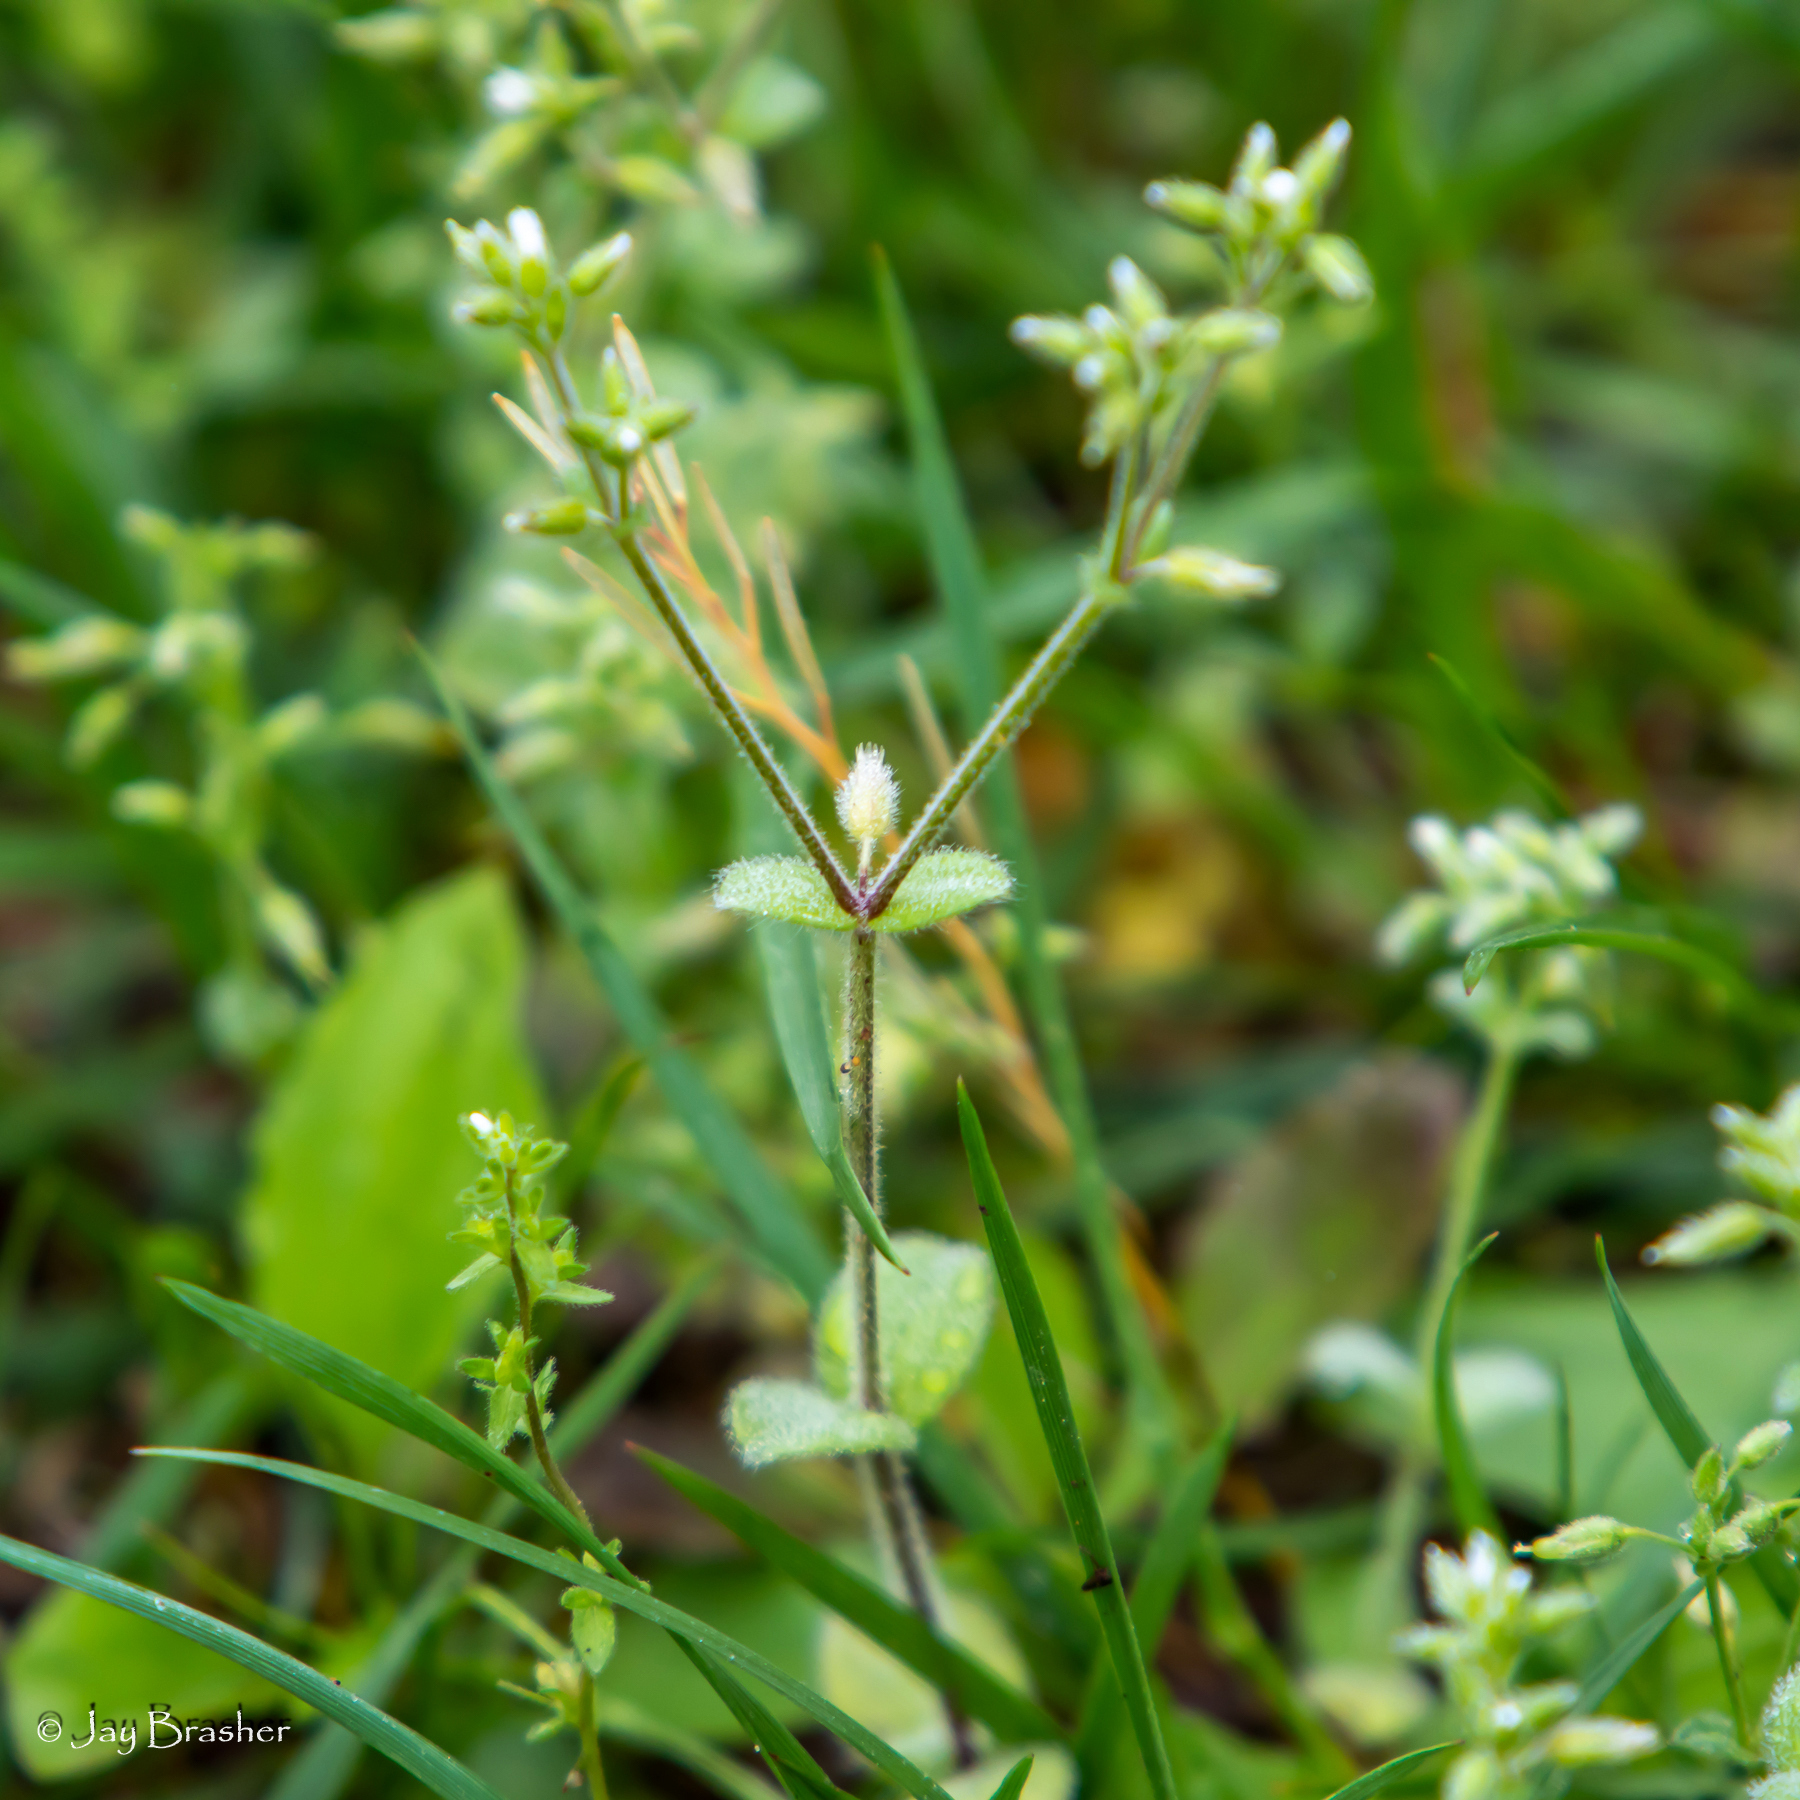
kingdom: Plantae
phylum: Tracheophyta
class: Magnoliopsida
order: Caryophyllales
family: Caryophyllaceae
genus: Cerastium
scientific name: Cerastium glomeratum
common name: Sticky chickweed
